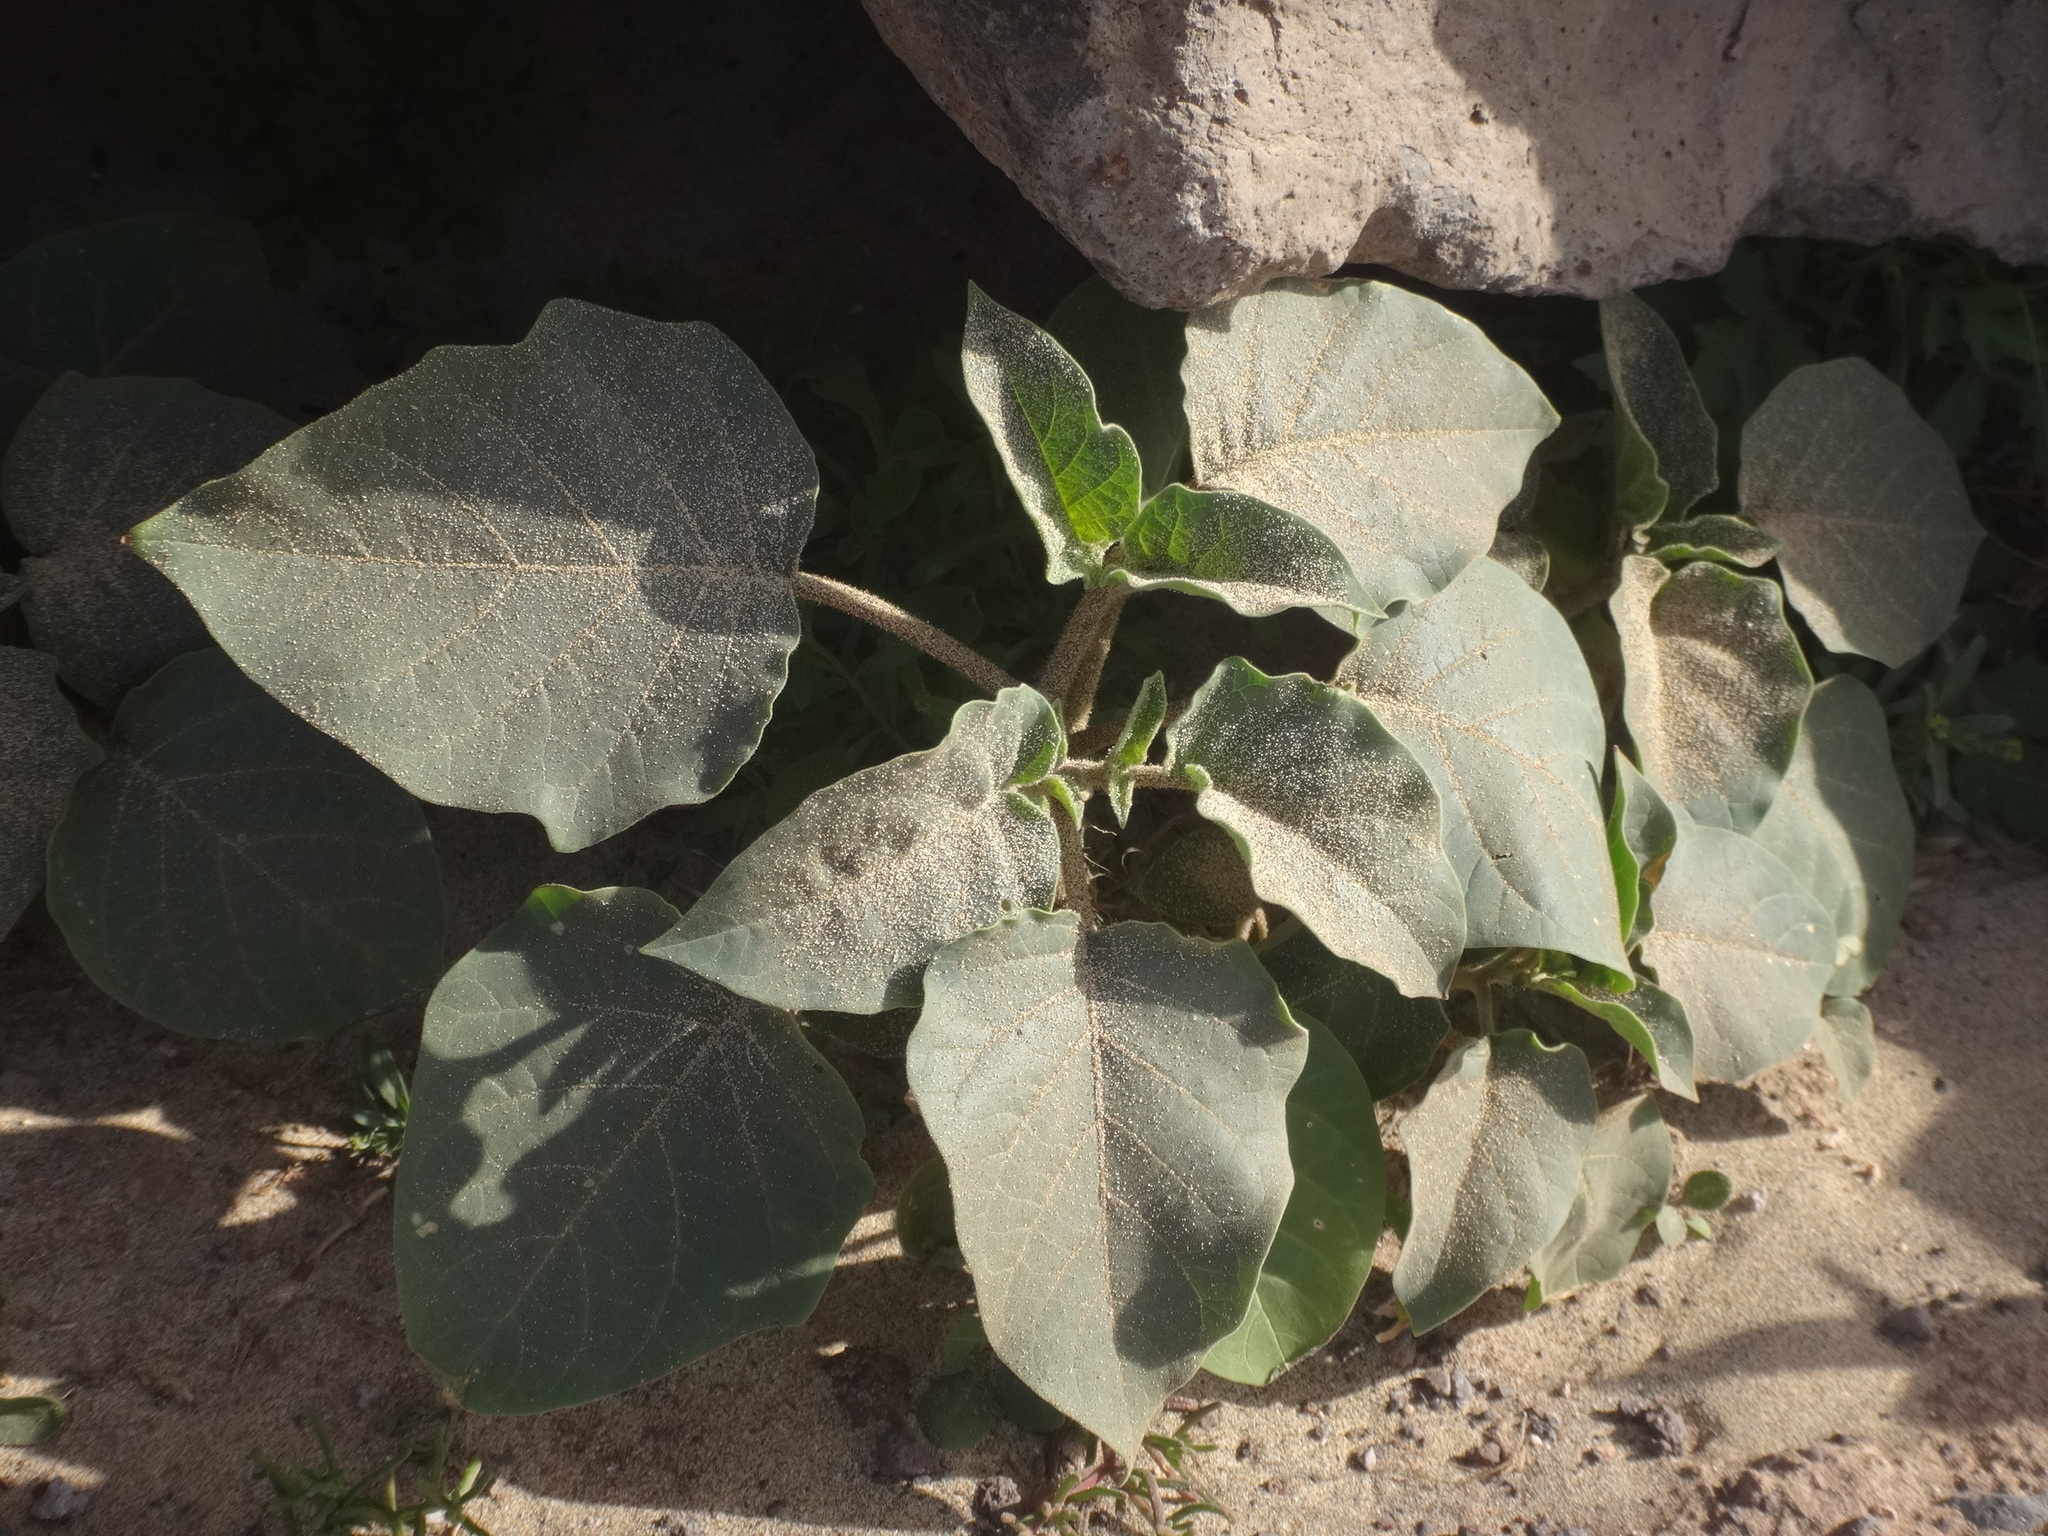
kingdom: Plantae
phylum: Tracheophyta
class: Magnoliopsida
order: Solanales
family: Solanaceae
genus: Datura
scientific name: Datura innoxia
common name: Downy thorn-apple
